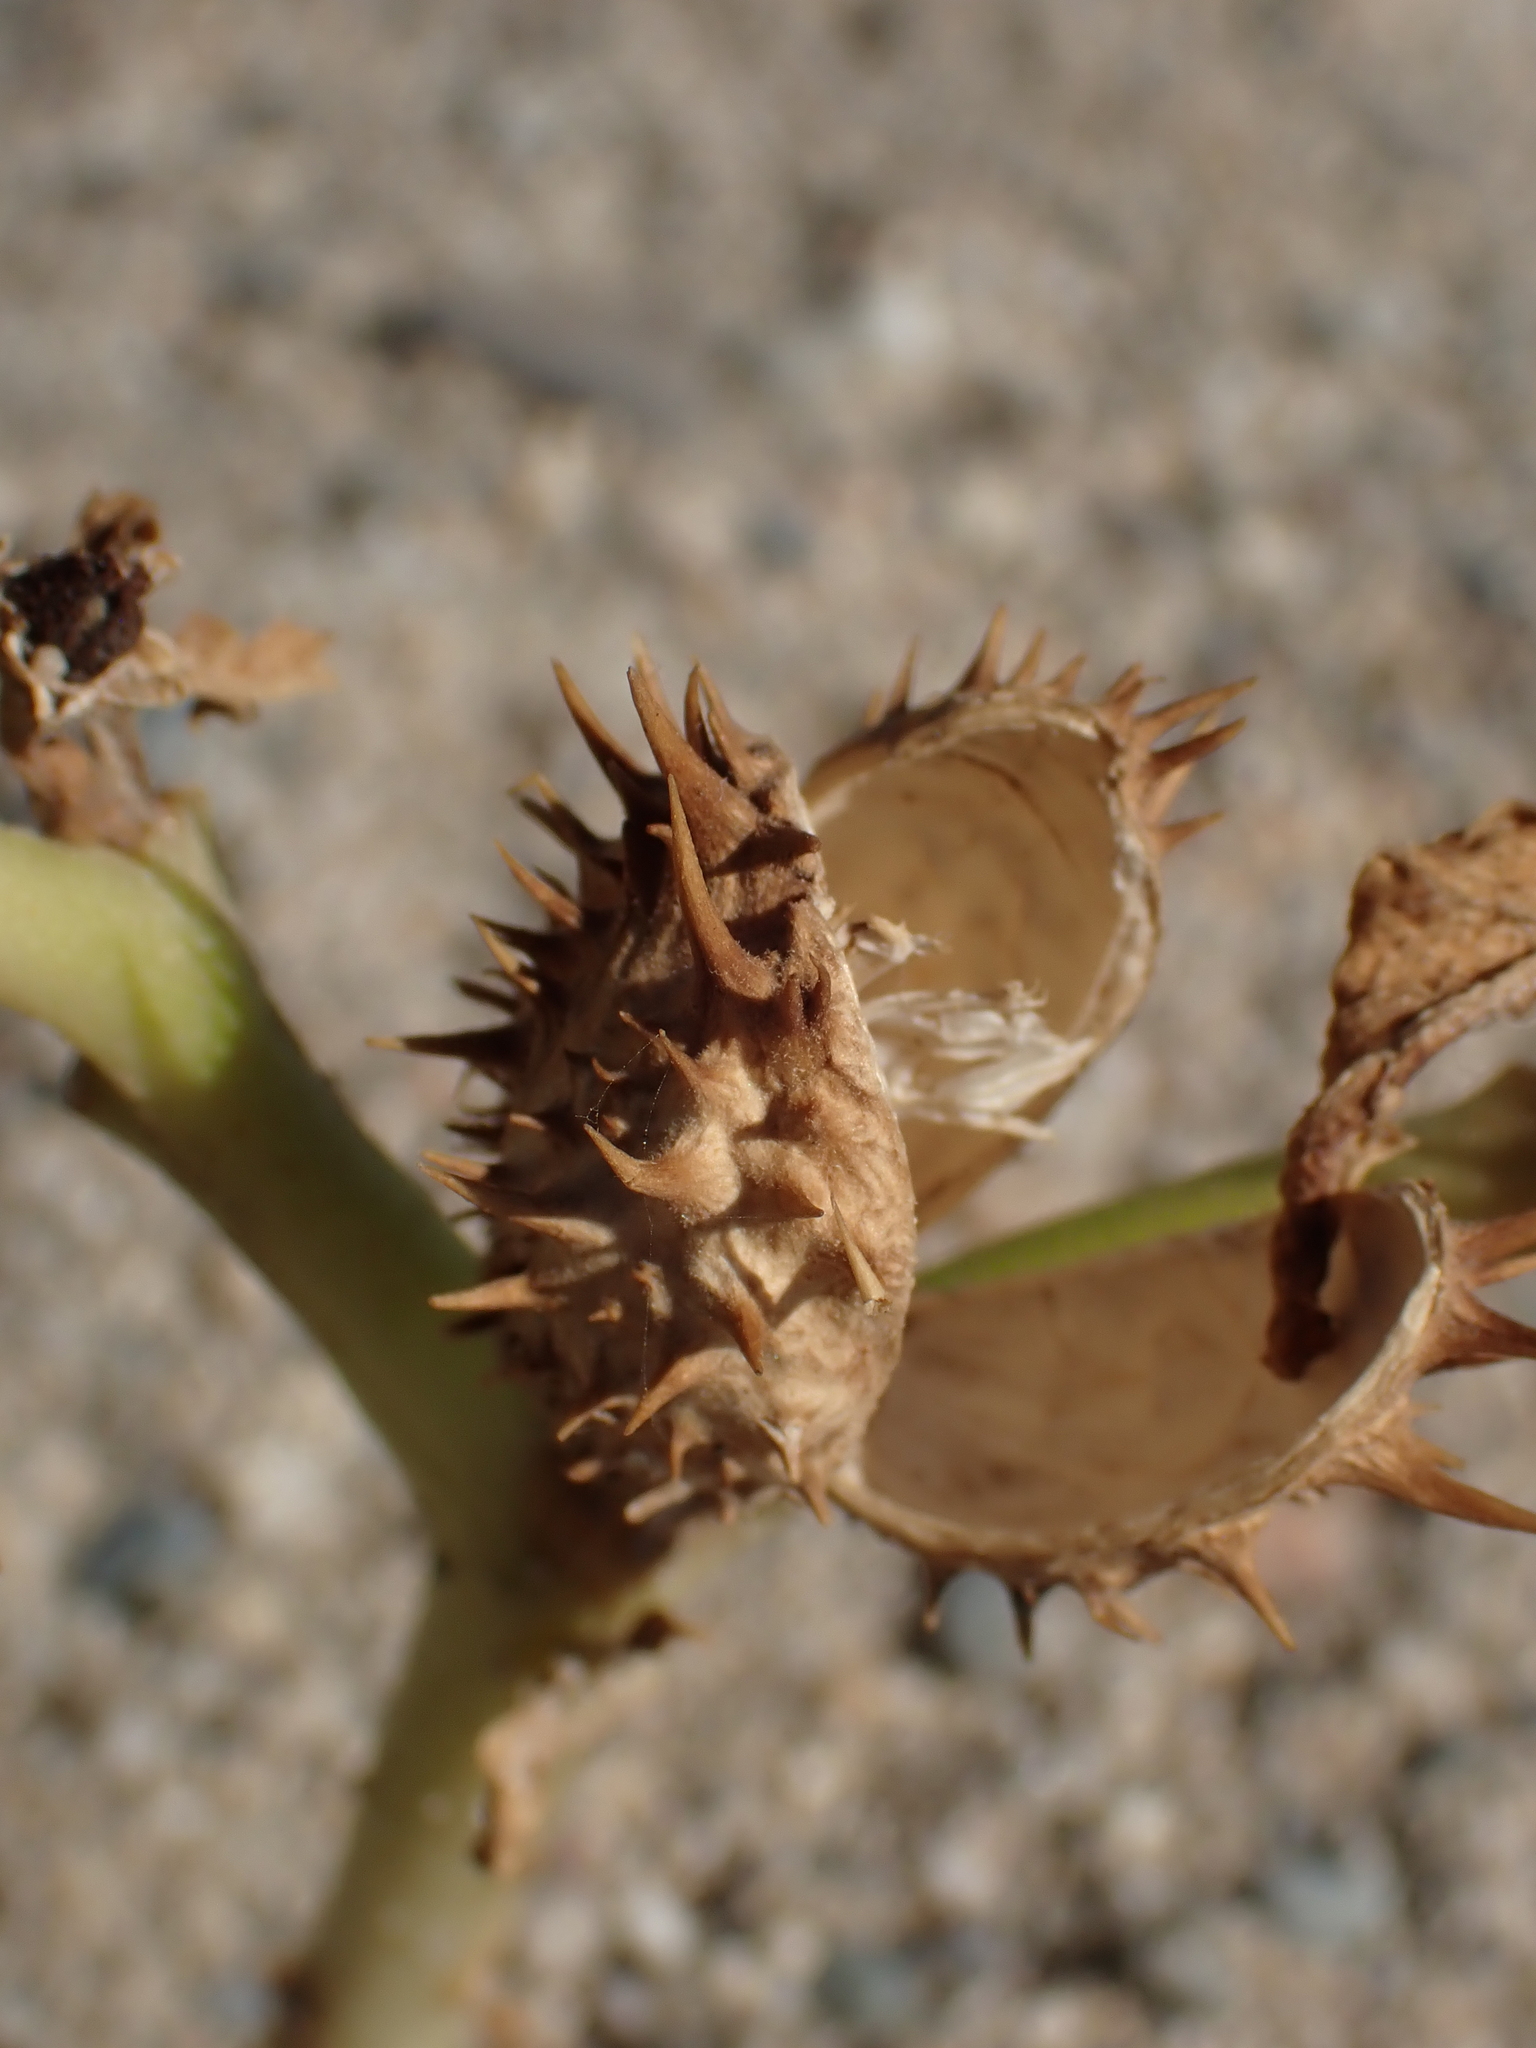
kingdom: Plantae
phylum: Tracheophyta
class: Magnoliopsida
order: Solanales
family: Solanaceae
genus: Datura
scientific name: Datura stramonium
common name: Thorn-apple
